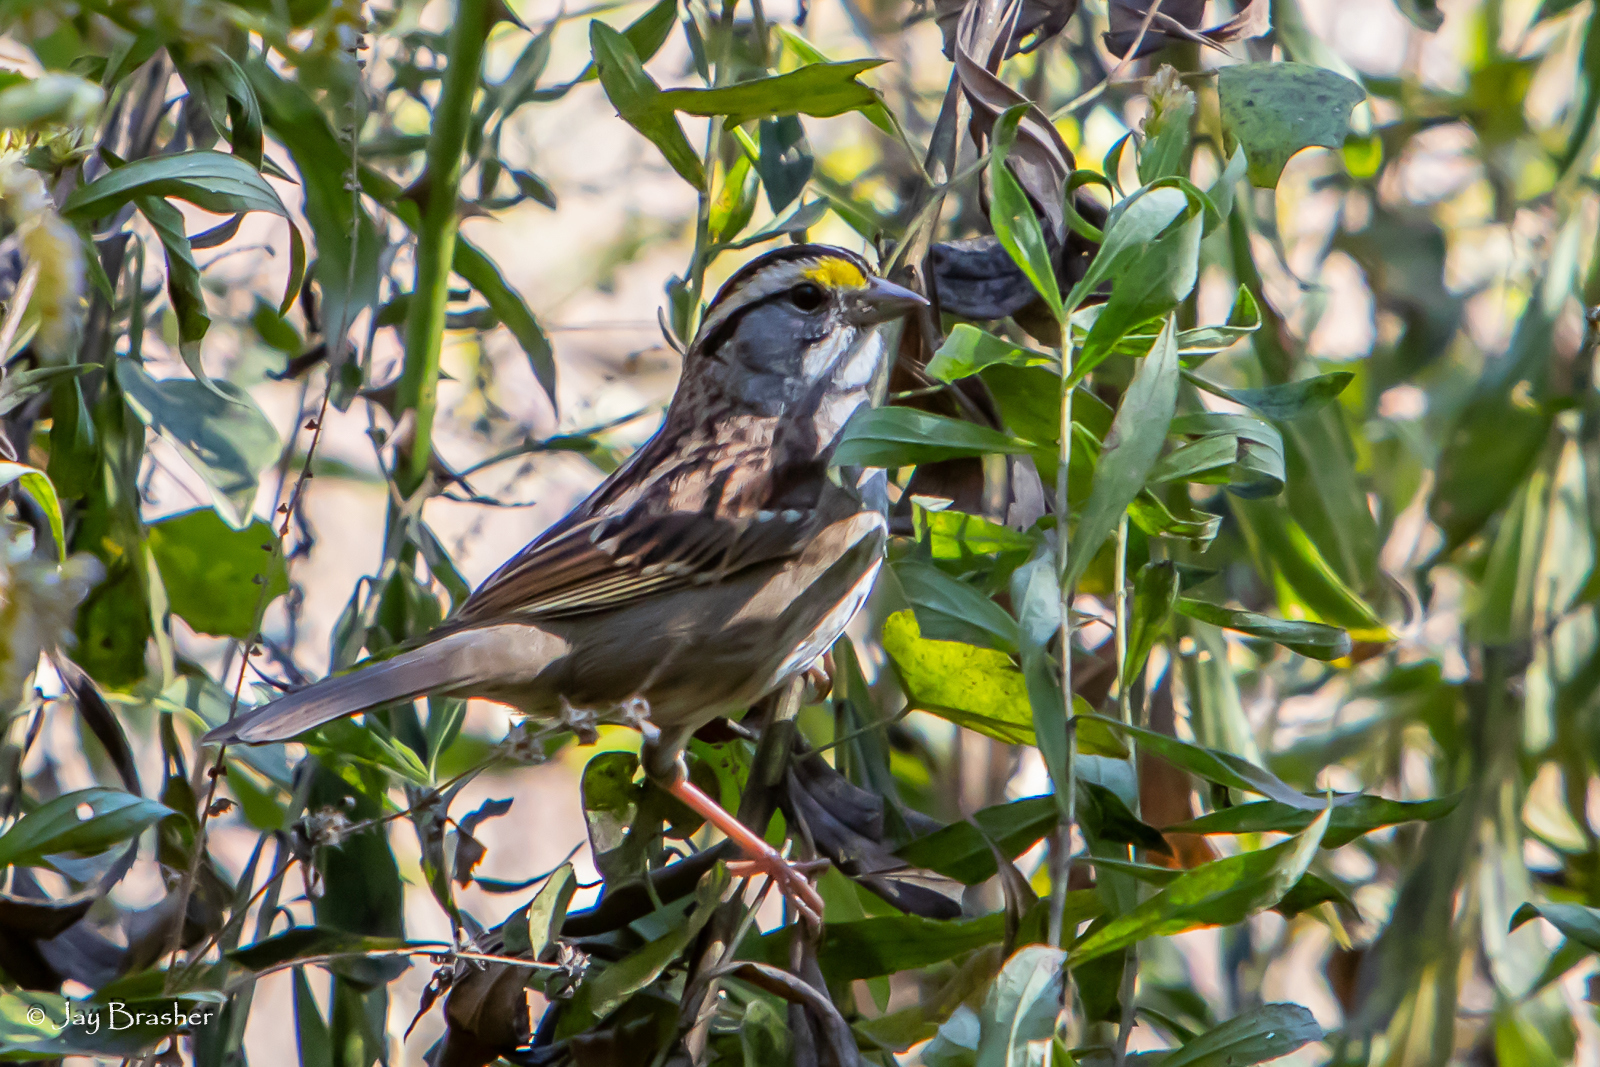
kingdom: Animalia
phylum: Chordata
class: Aves
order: Passeriformes
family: Passerellidae
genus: Zonotrichia
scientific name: Zonotrichia albicollis
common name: White-throated sparrow
